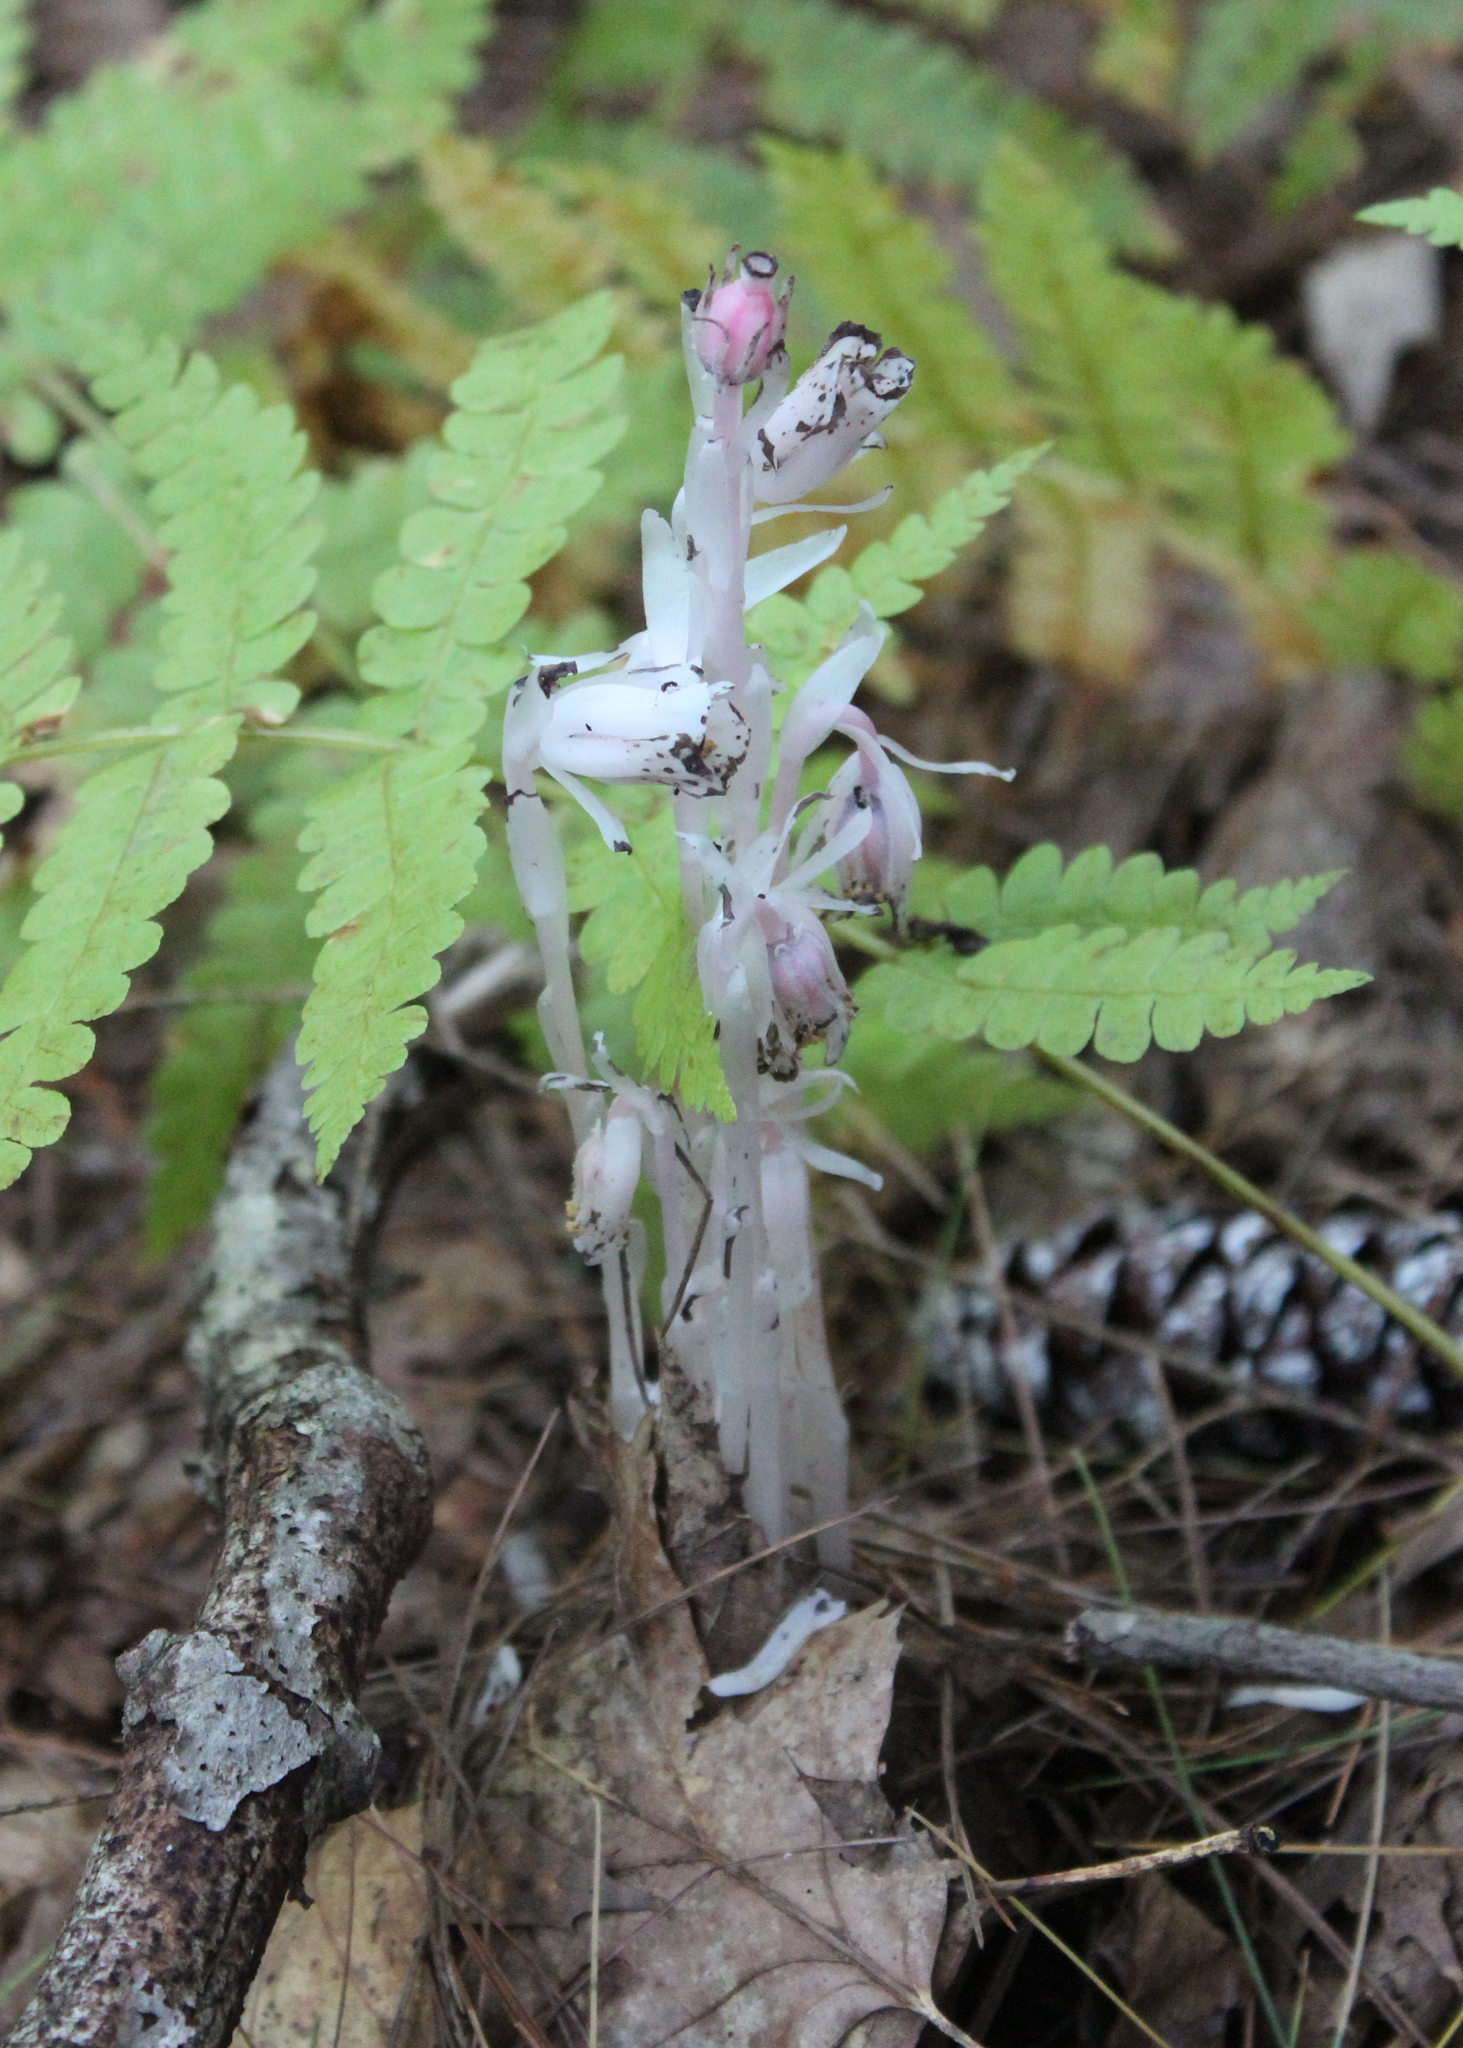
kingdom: Plantae
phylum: Tracheophyta
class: Magnoliopsida
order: Ericales
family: Ericaceae
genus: Monotropa
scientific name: Monotropa uniflora
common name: Convulsion root
